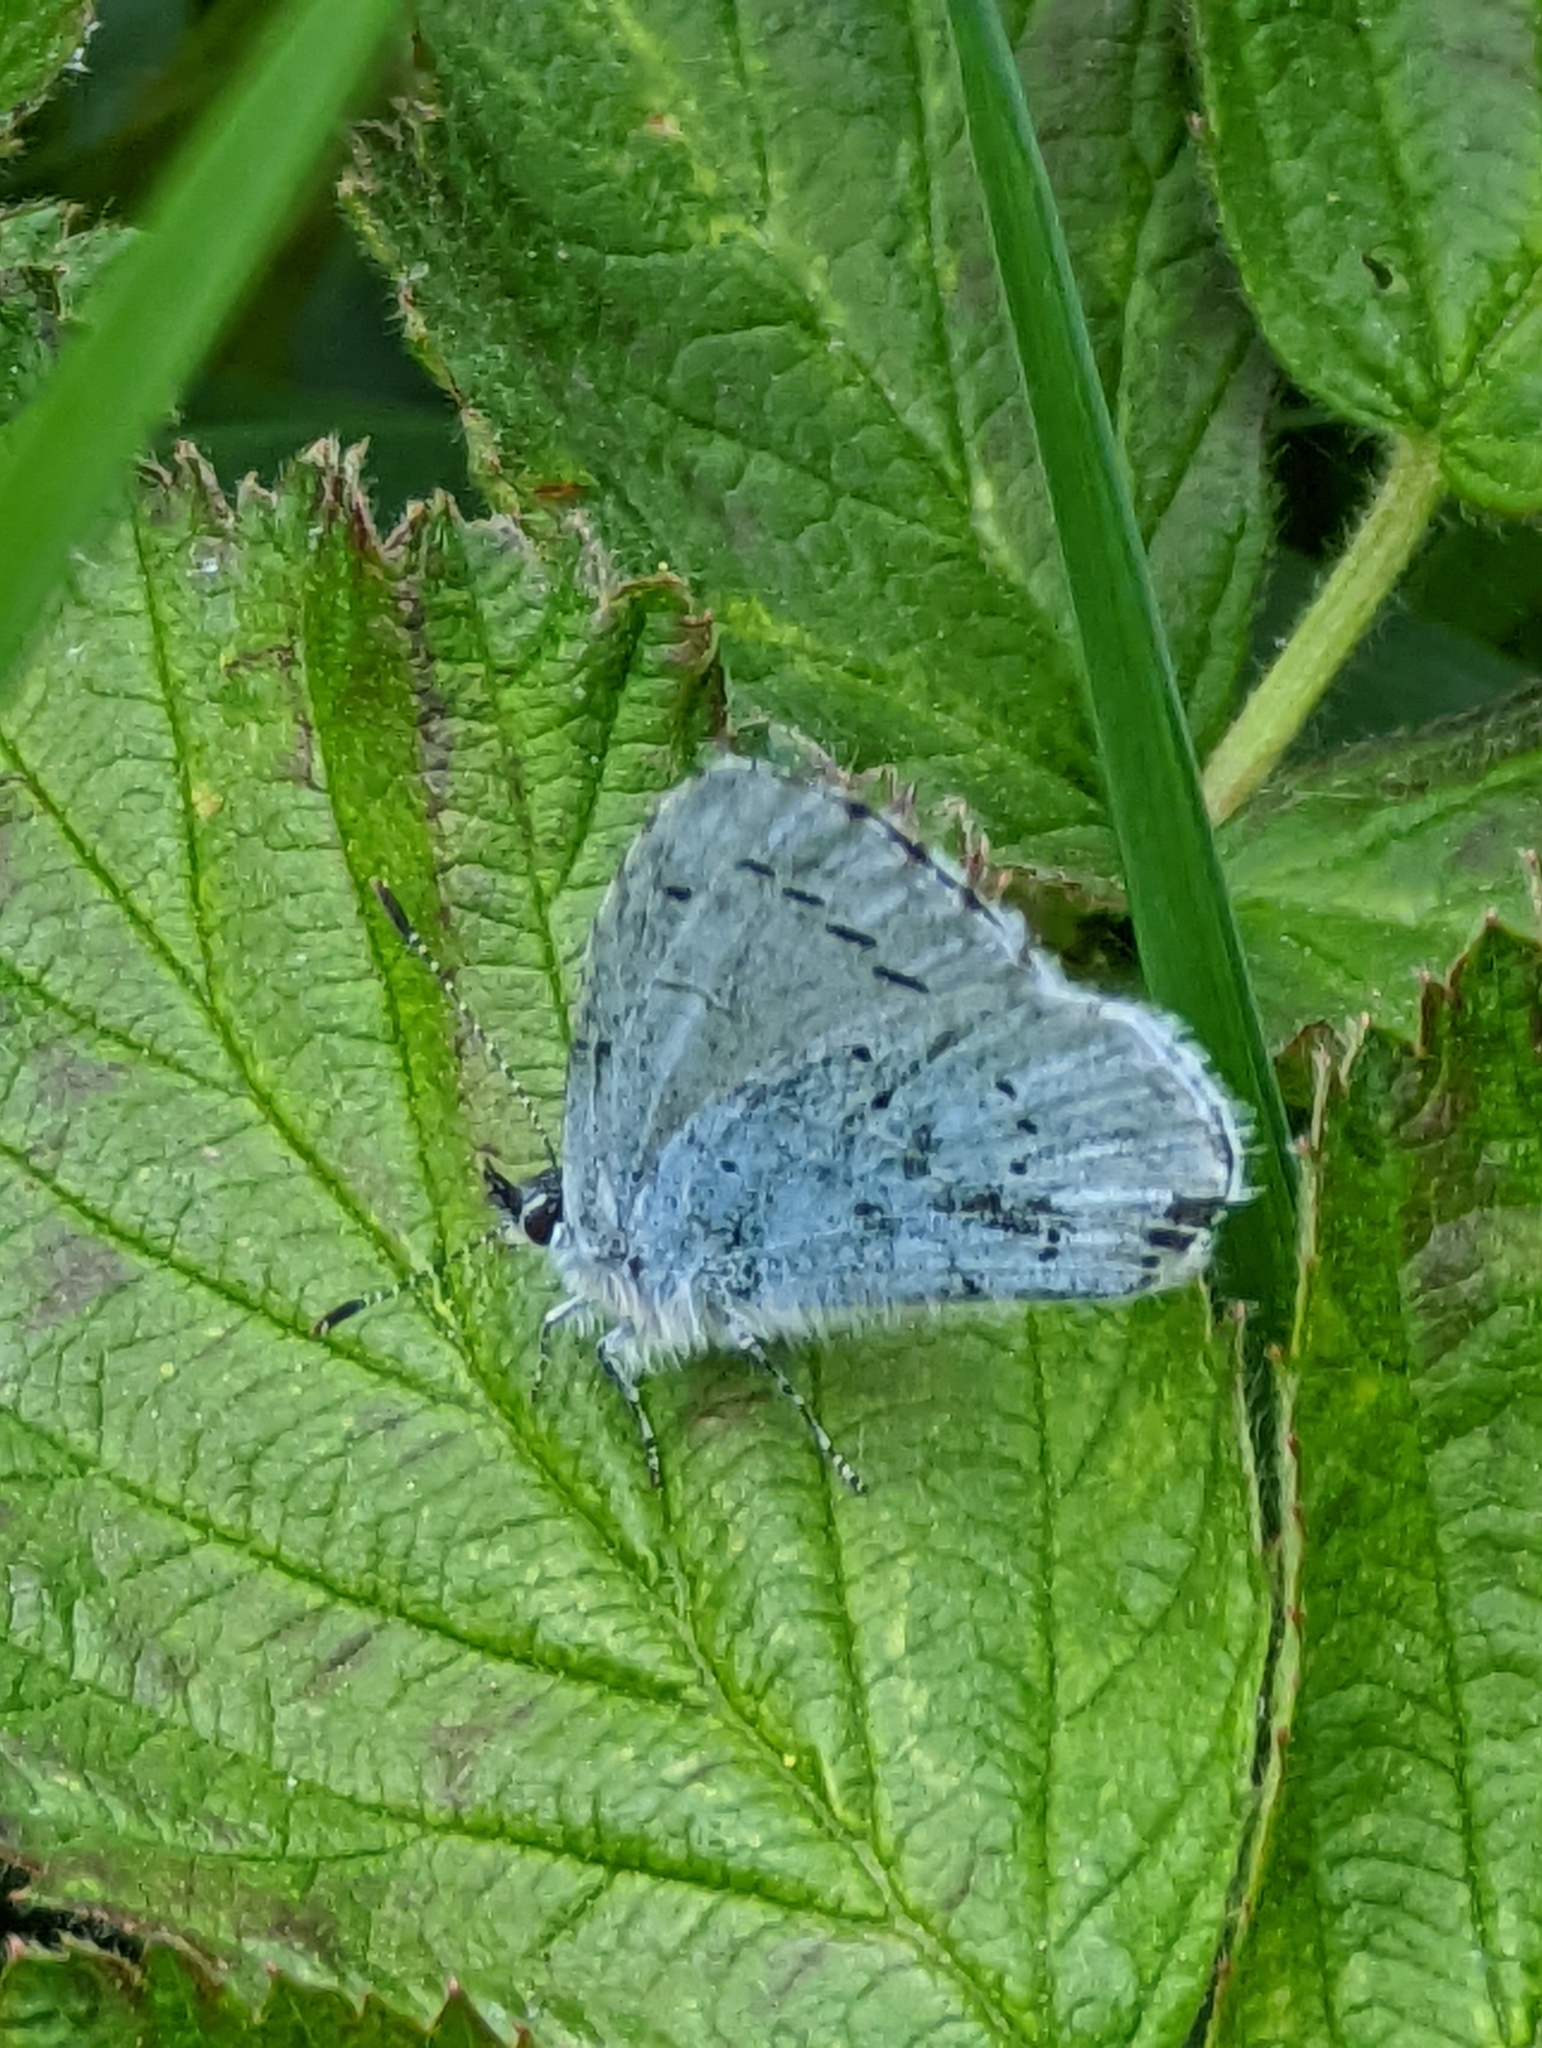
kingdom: Animalia
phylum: Arthropoda
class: Insecta
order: Lepidoptera
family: Lycaenidae
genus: Celastrina
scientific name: Celastrina argiolus
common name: Holly blue
